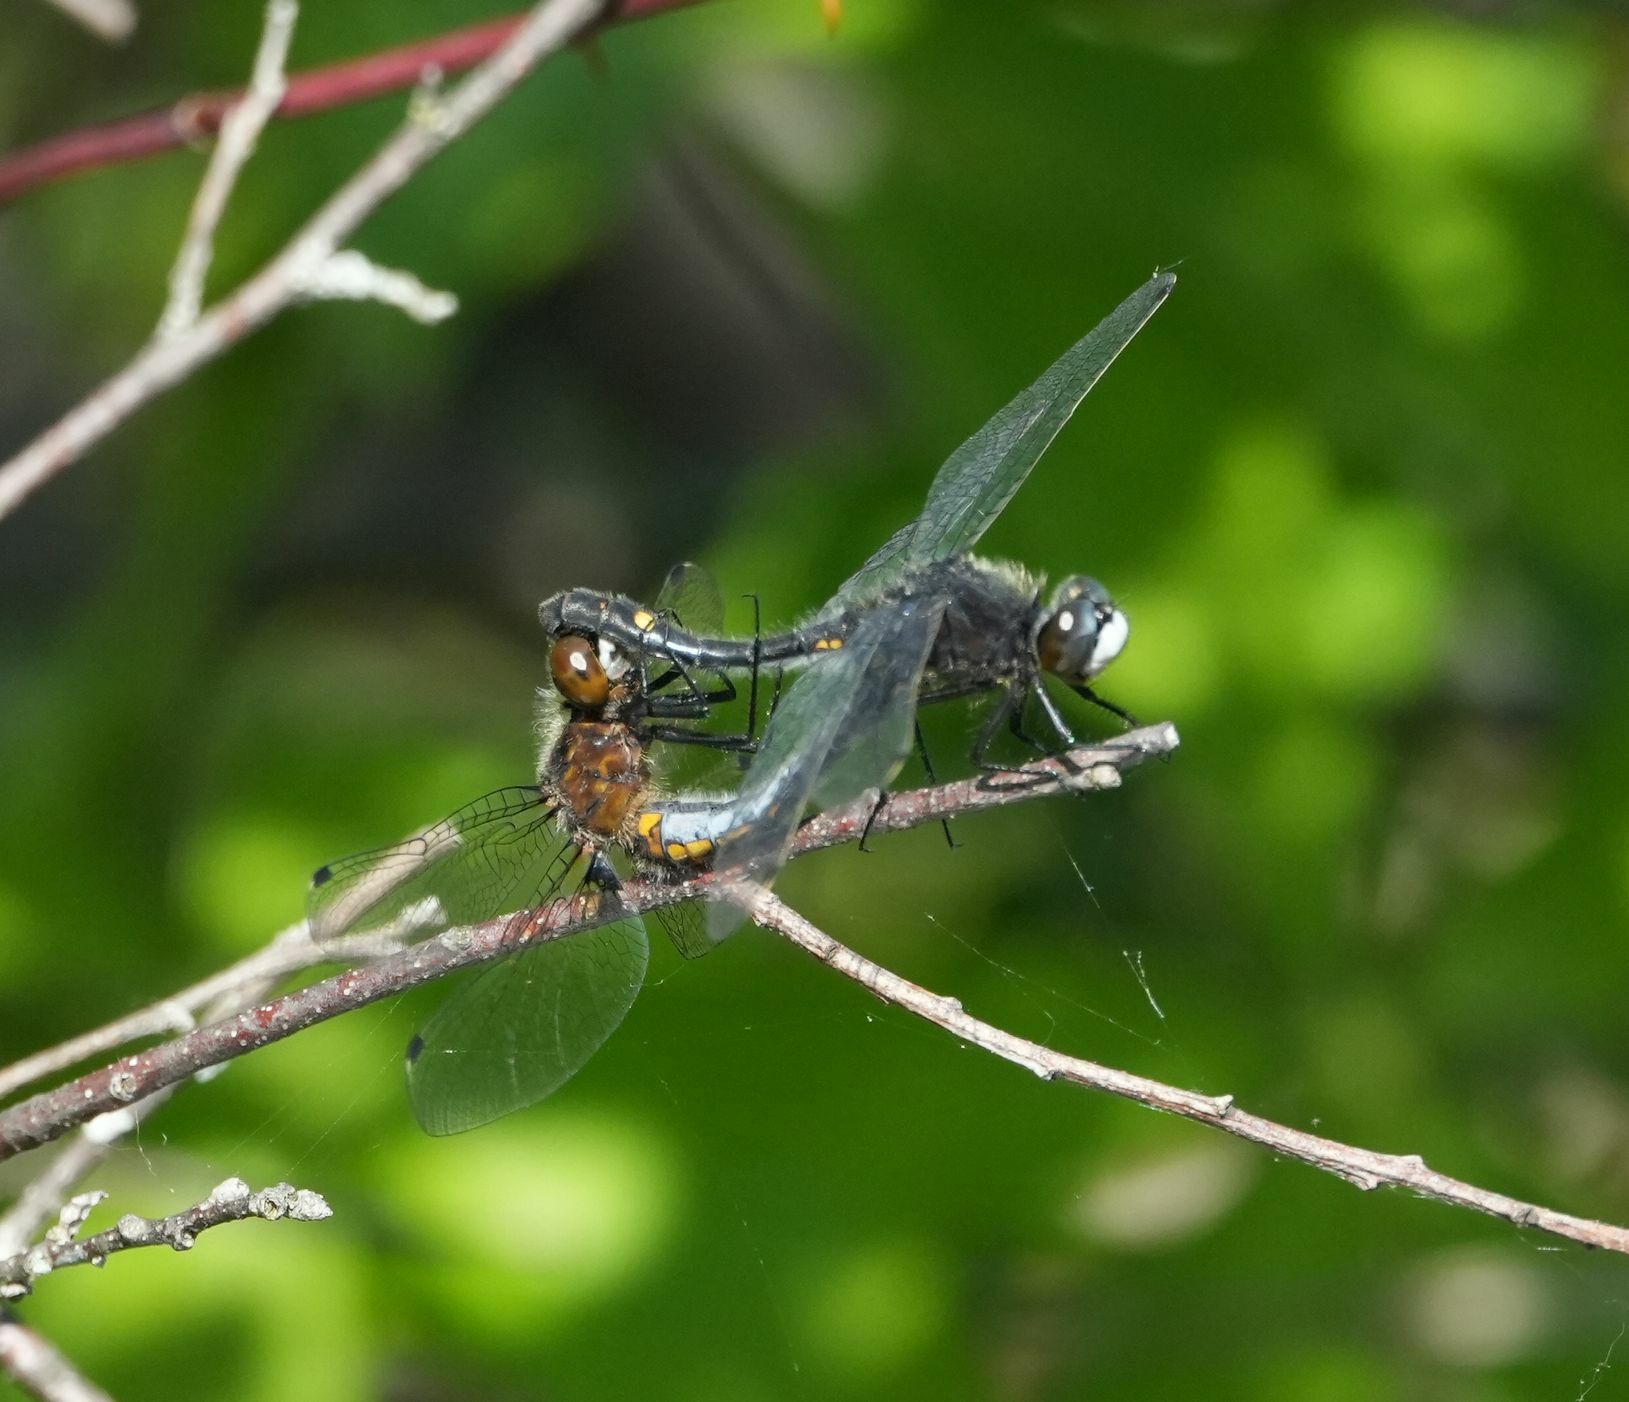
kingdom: Animalia
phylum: Arthropoda
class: Insecta
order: Odonata
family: Libellulidae
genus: Leucorrhinia
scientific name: Leucorrhinia intacta
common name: Dot-tailed whiteface
